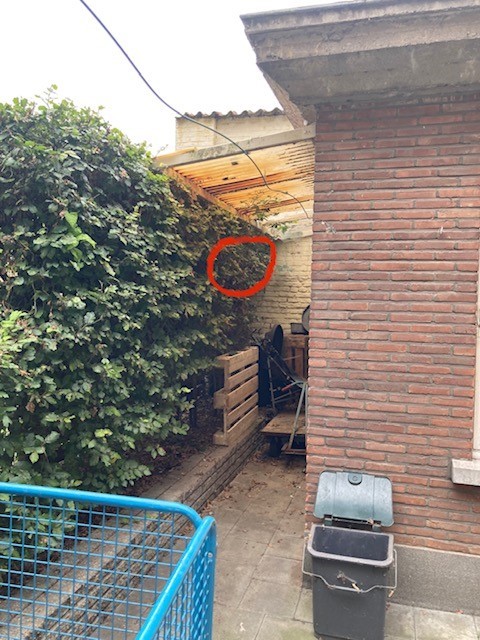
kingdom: Animalia
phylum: Arthropoda
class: Insecta
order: Hymenoptera
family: Vespidae
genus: Vespa
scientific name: Vespa velutina
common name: Asian hornet
